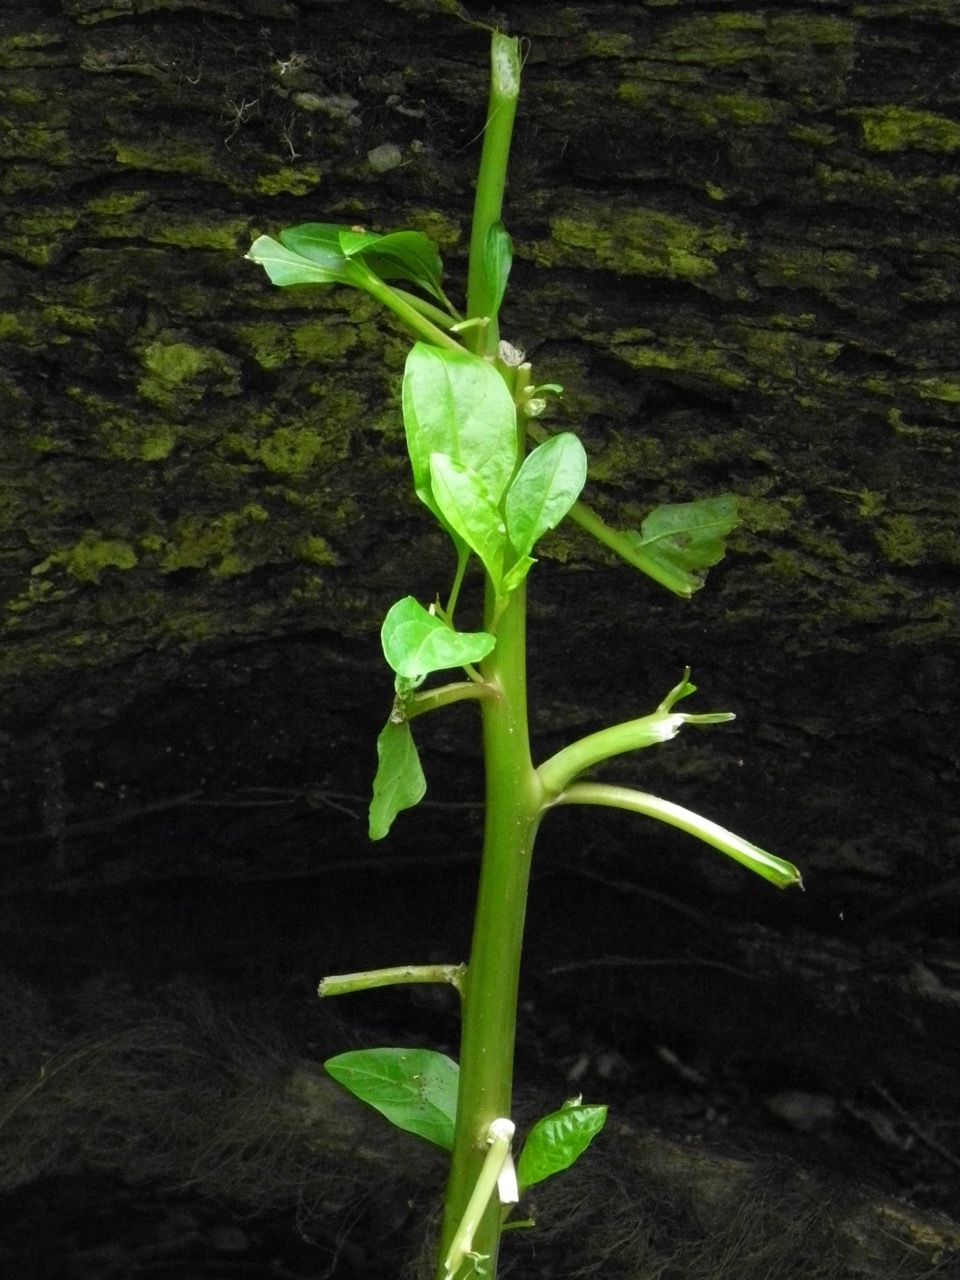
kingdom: Plantae
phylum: Tracheophyta
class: Magnoliopsida
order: Caryophyllales
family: Phytolaccaceae
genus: Phytolacca
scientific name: Phytolacca americana
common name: American pokeweed
